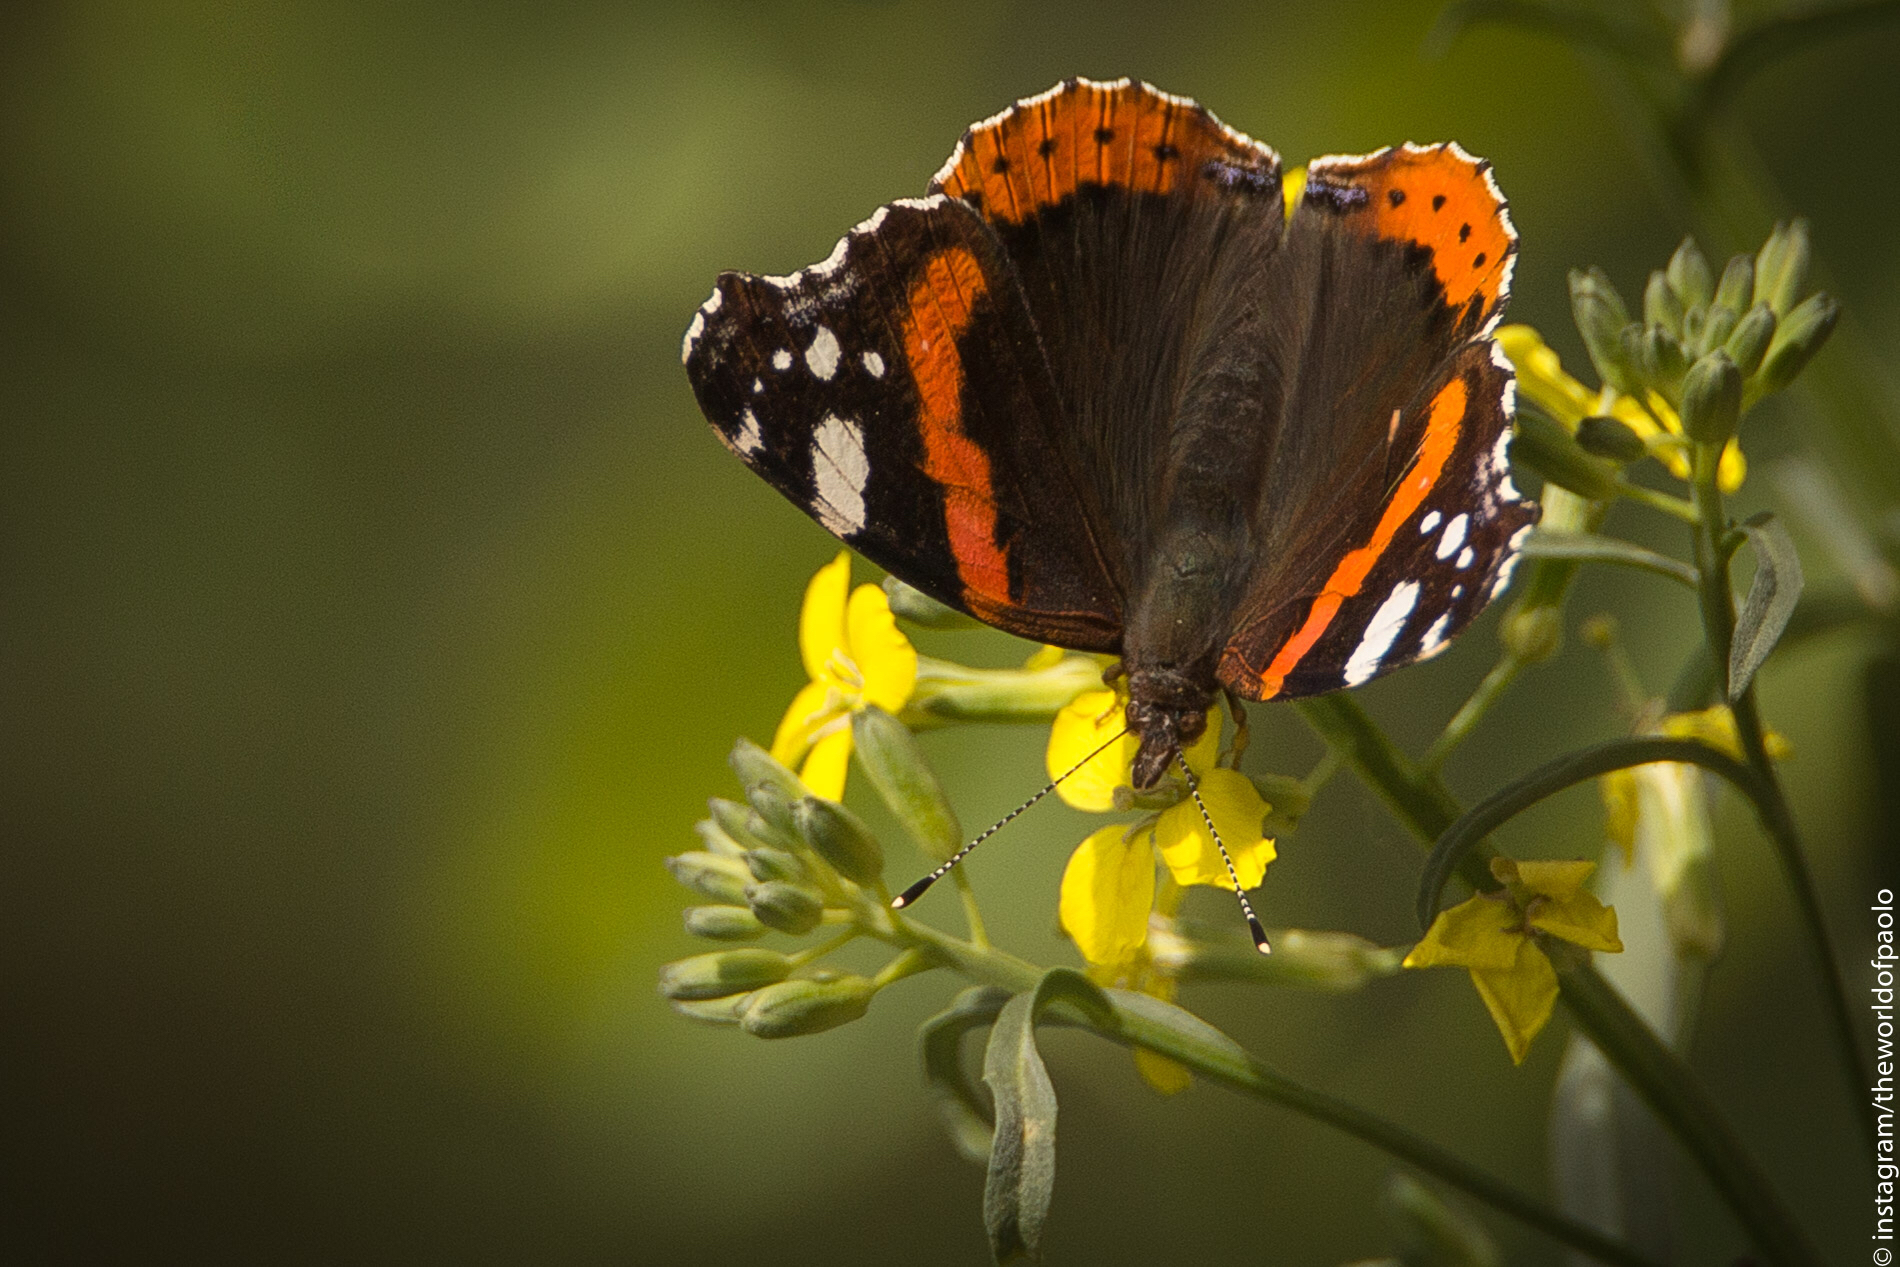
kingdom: Animalia
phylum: Arthropoda
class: Insecta
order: Lepidoptera
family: Nymphalidae
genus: Vanessa
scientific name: Vanessa atalanta
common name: Red admiral
